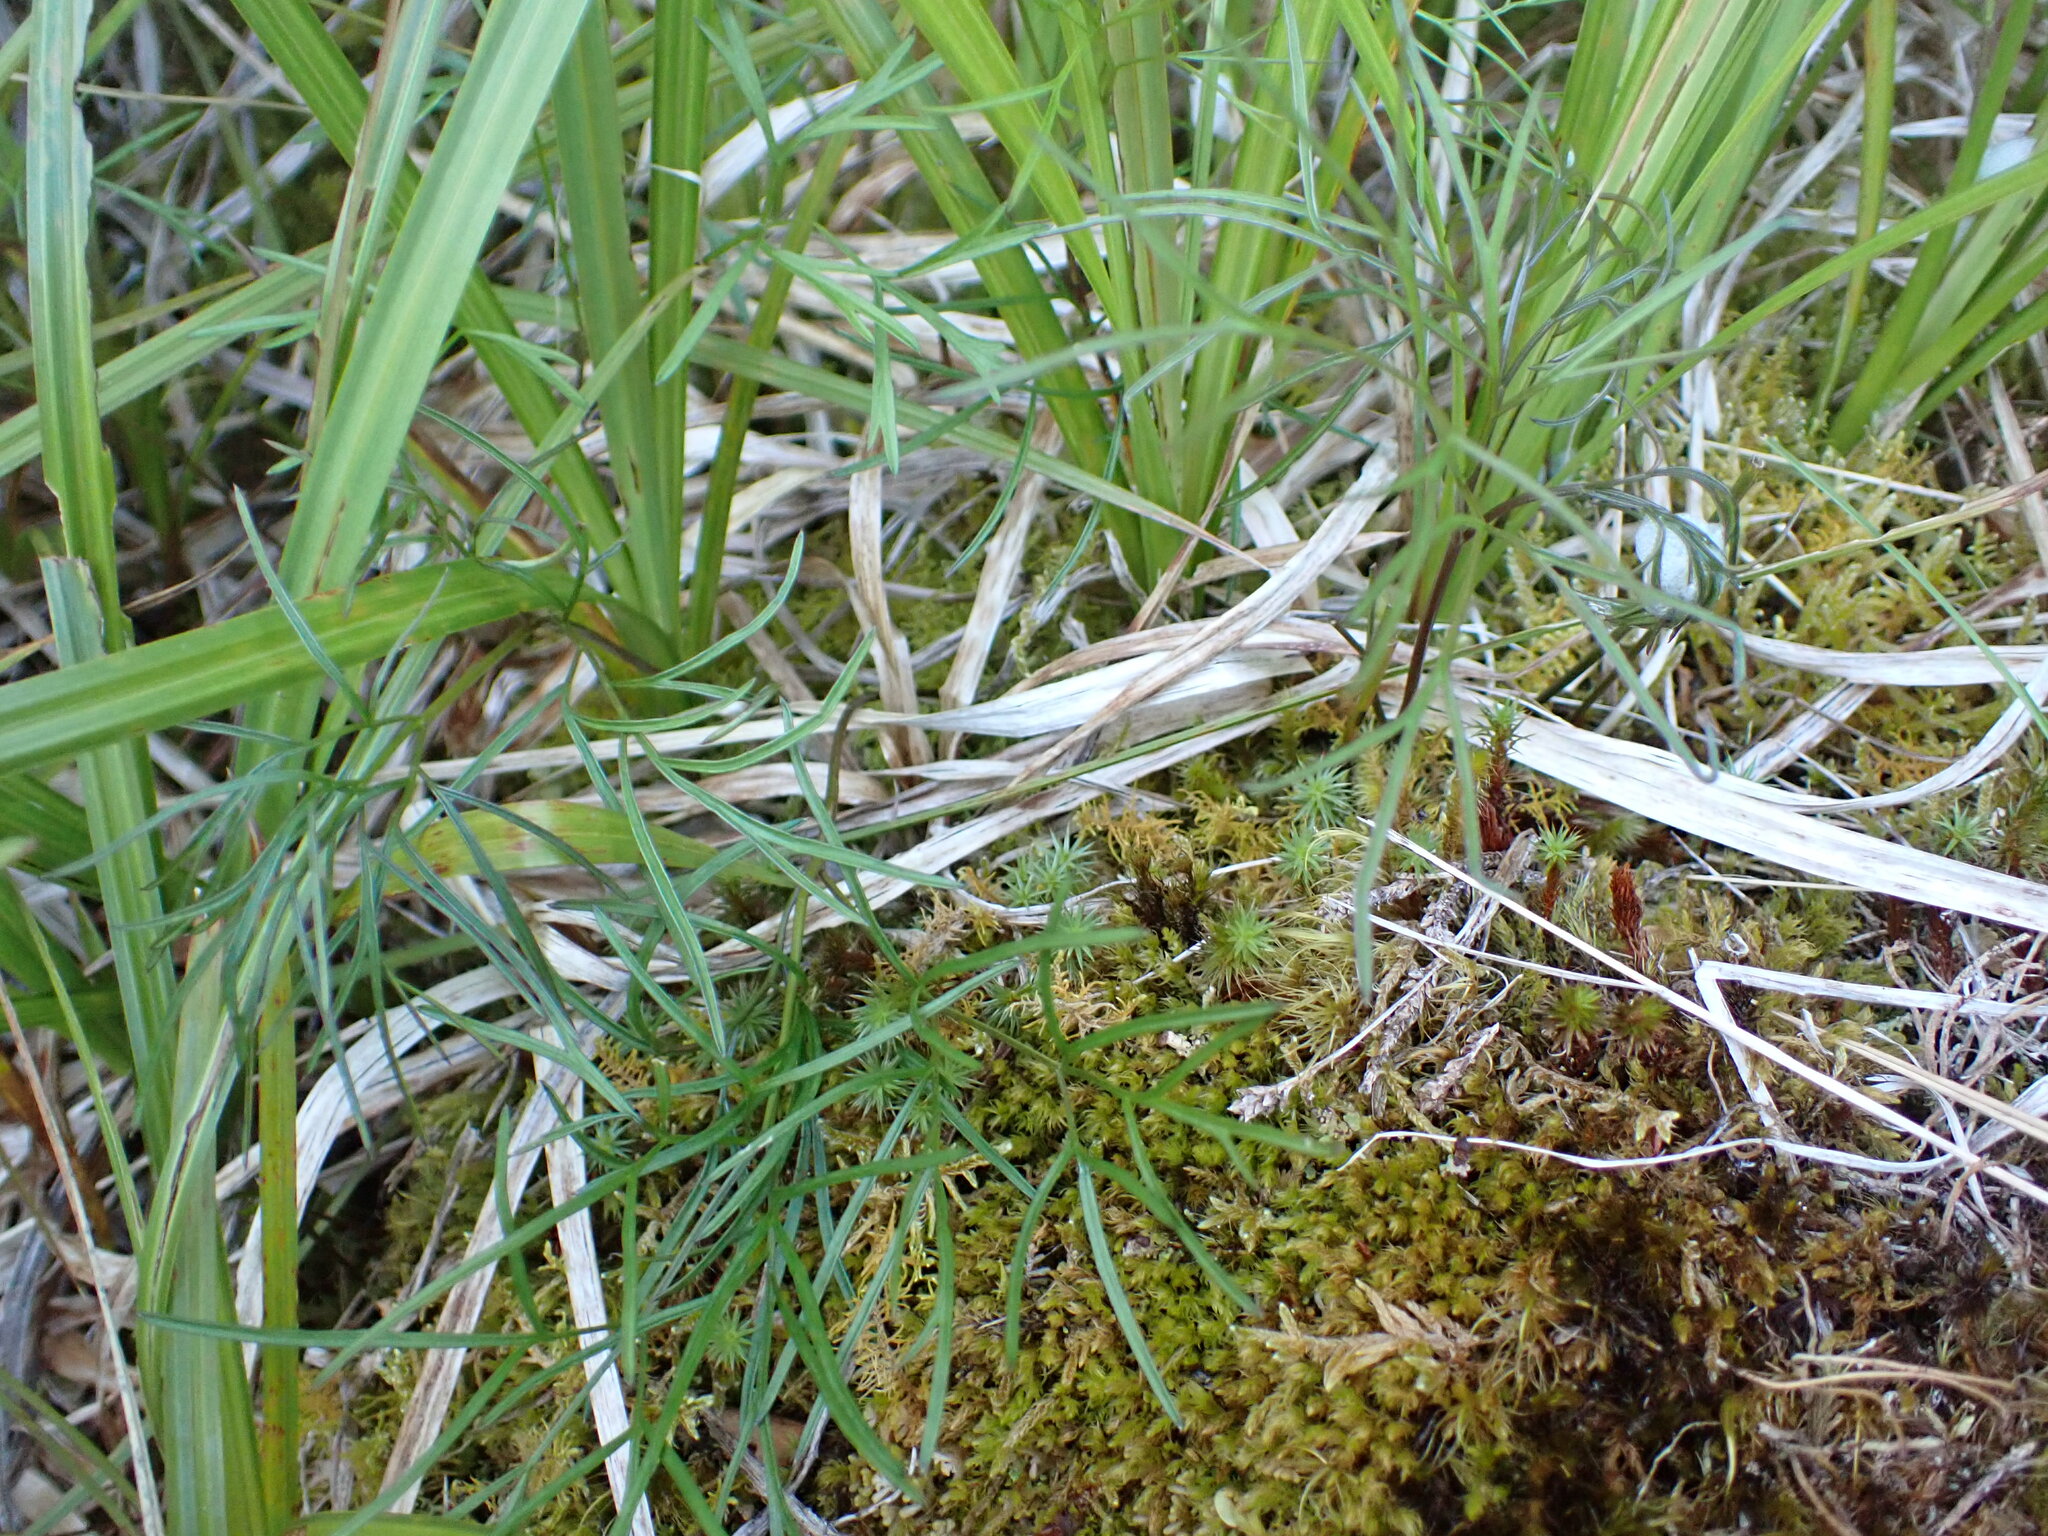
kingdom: Plantae
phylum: Tracheophyta
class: Magnoliopsida
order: Apiales
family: Apiaceae
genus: Anisotome
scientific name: Anisotome filifolia
